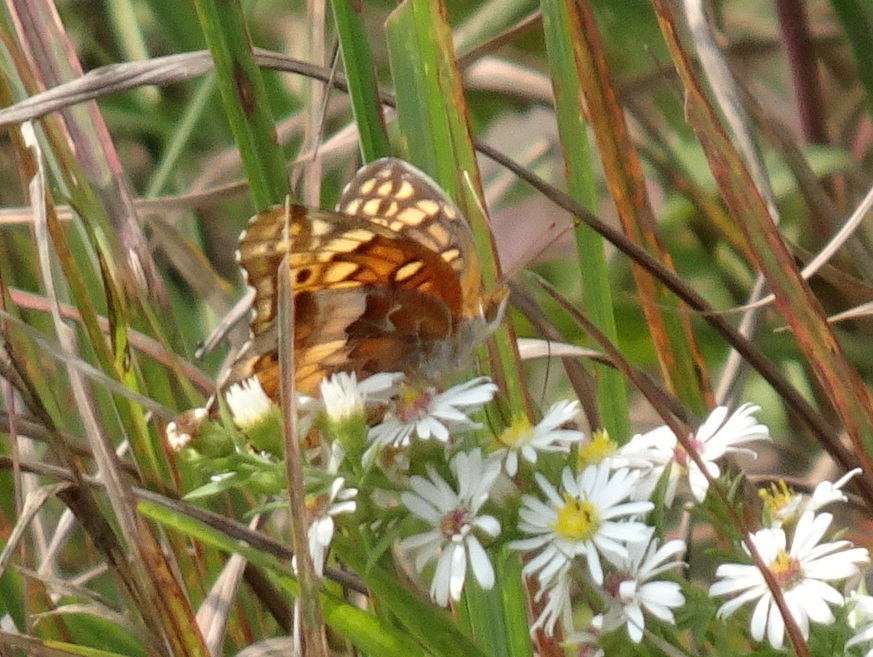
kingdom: Animalia
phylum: Arthropoda
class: Insecta
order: Lepidoptera
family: Nymphalidae
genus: Euptoieta
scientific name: Euptoieta claudia
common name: Variegated fritillary
